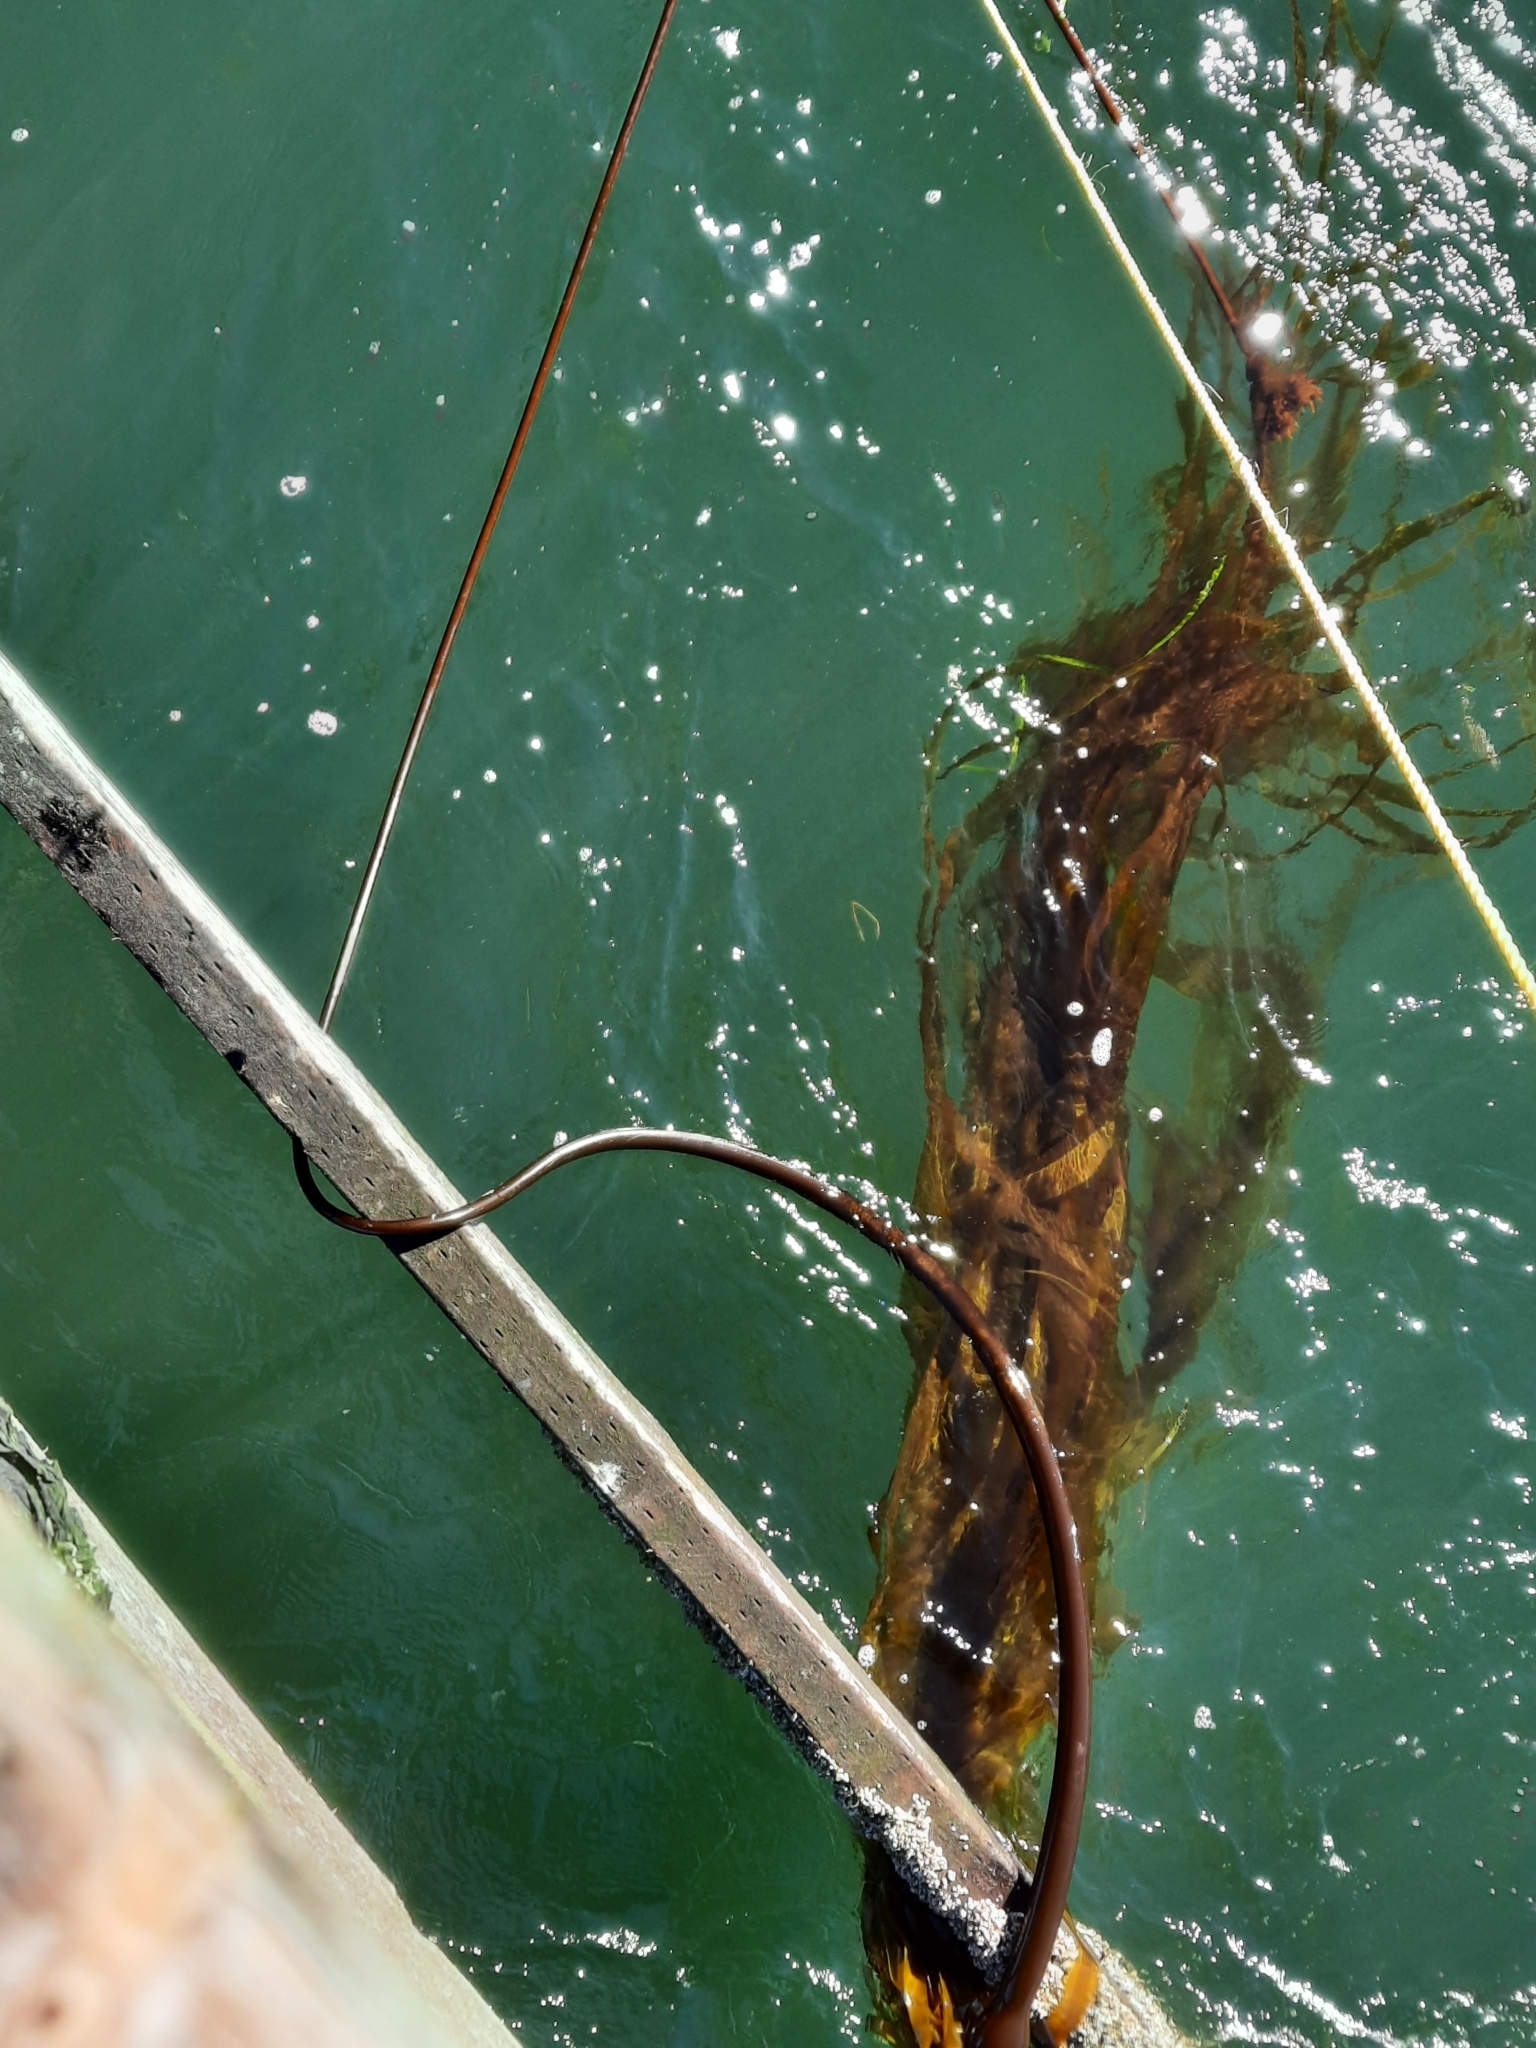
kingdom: Chromista
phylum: Ochrophyta
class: Phaeophyceae
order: Laminariales
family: Laminariaceae
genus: Nereocystis
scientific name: Nereocystis luetkeana
